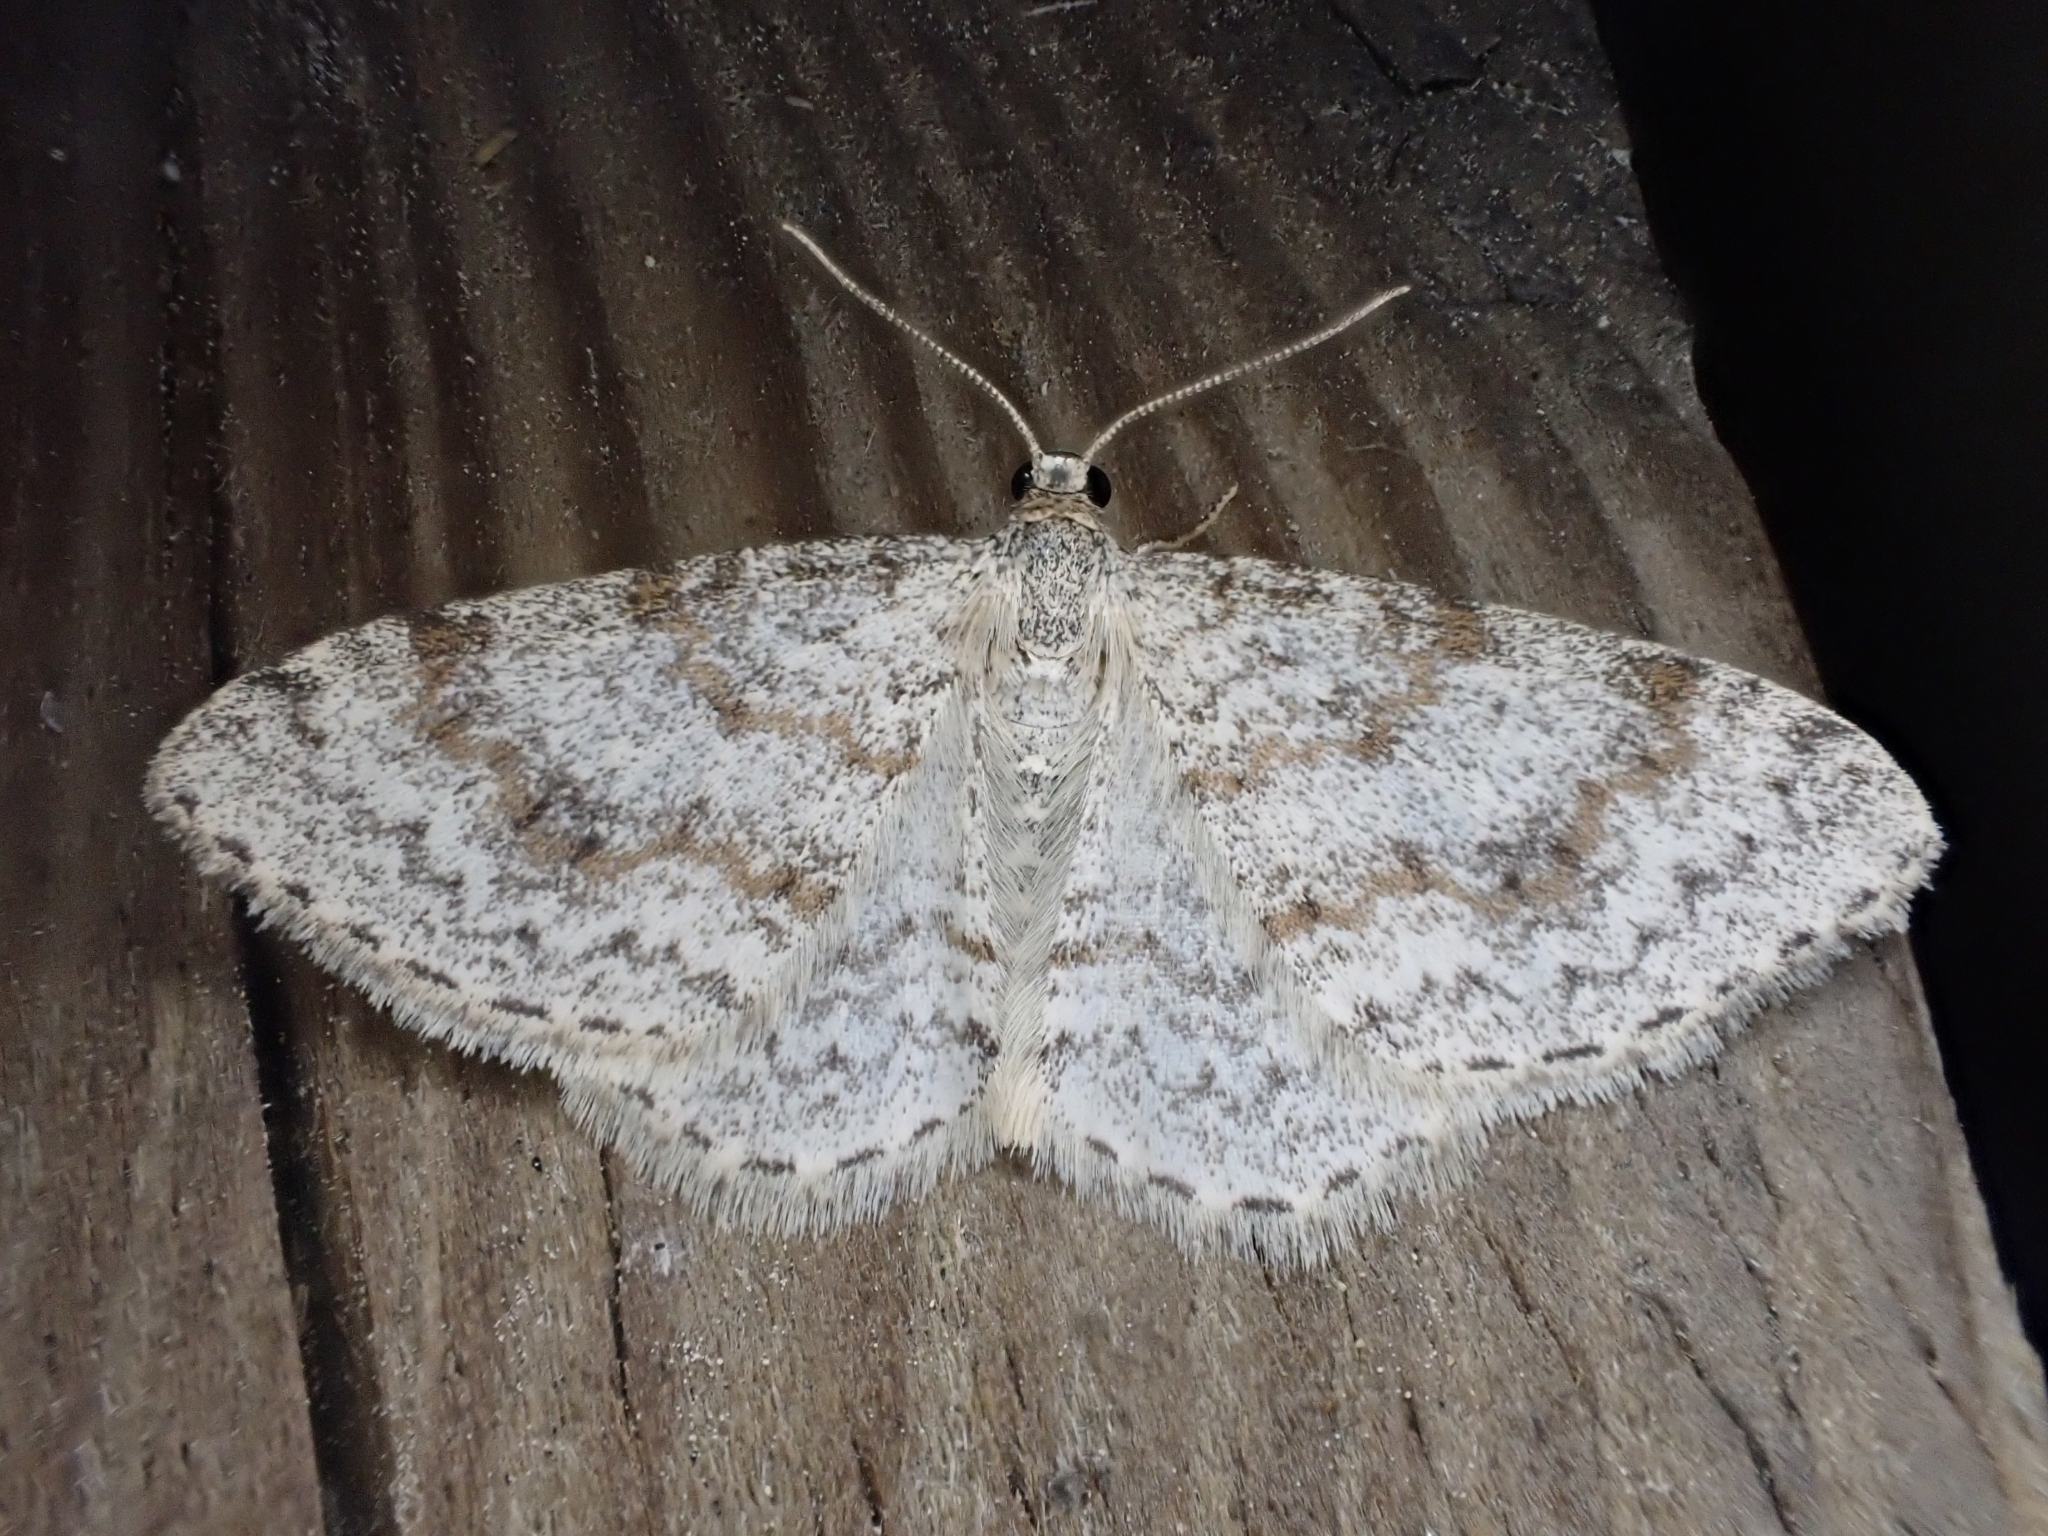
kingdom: Animalia
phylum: Arthropoda
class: Insecta
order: Lepidoptera
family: Geometridae
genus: Hydrelia
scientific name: Hydrelia sylvata
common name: Waved carpet
